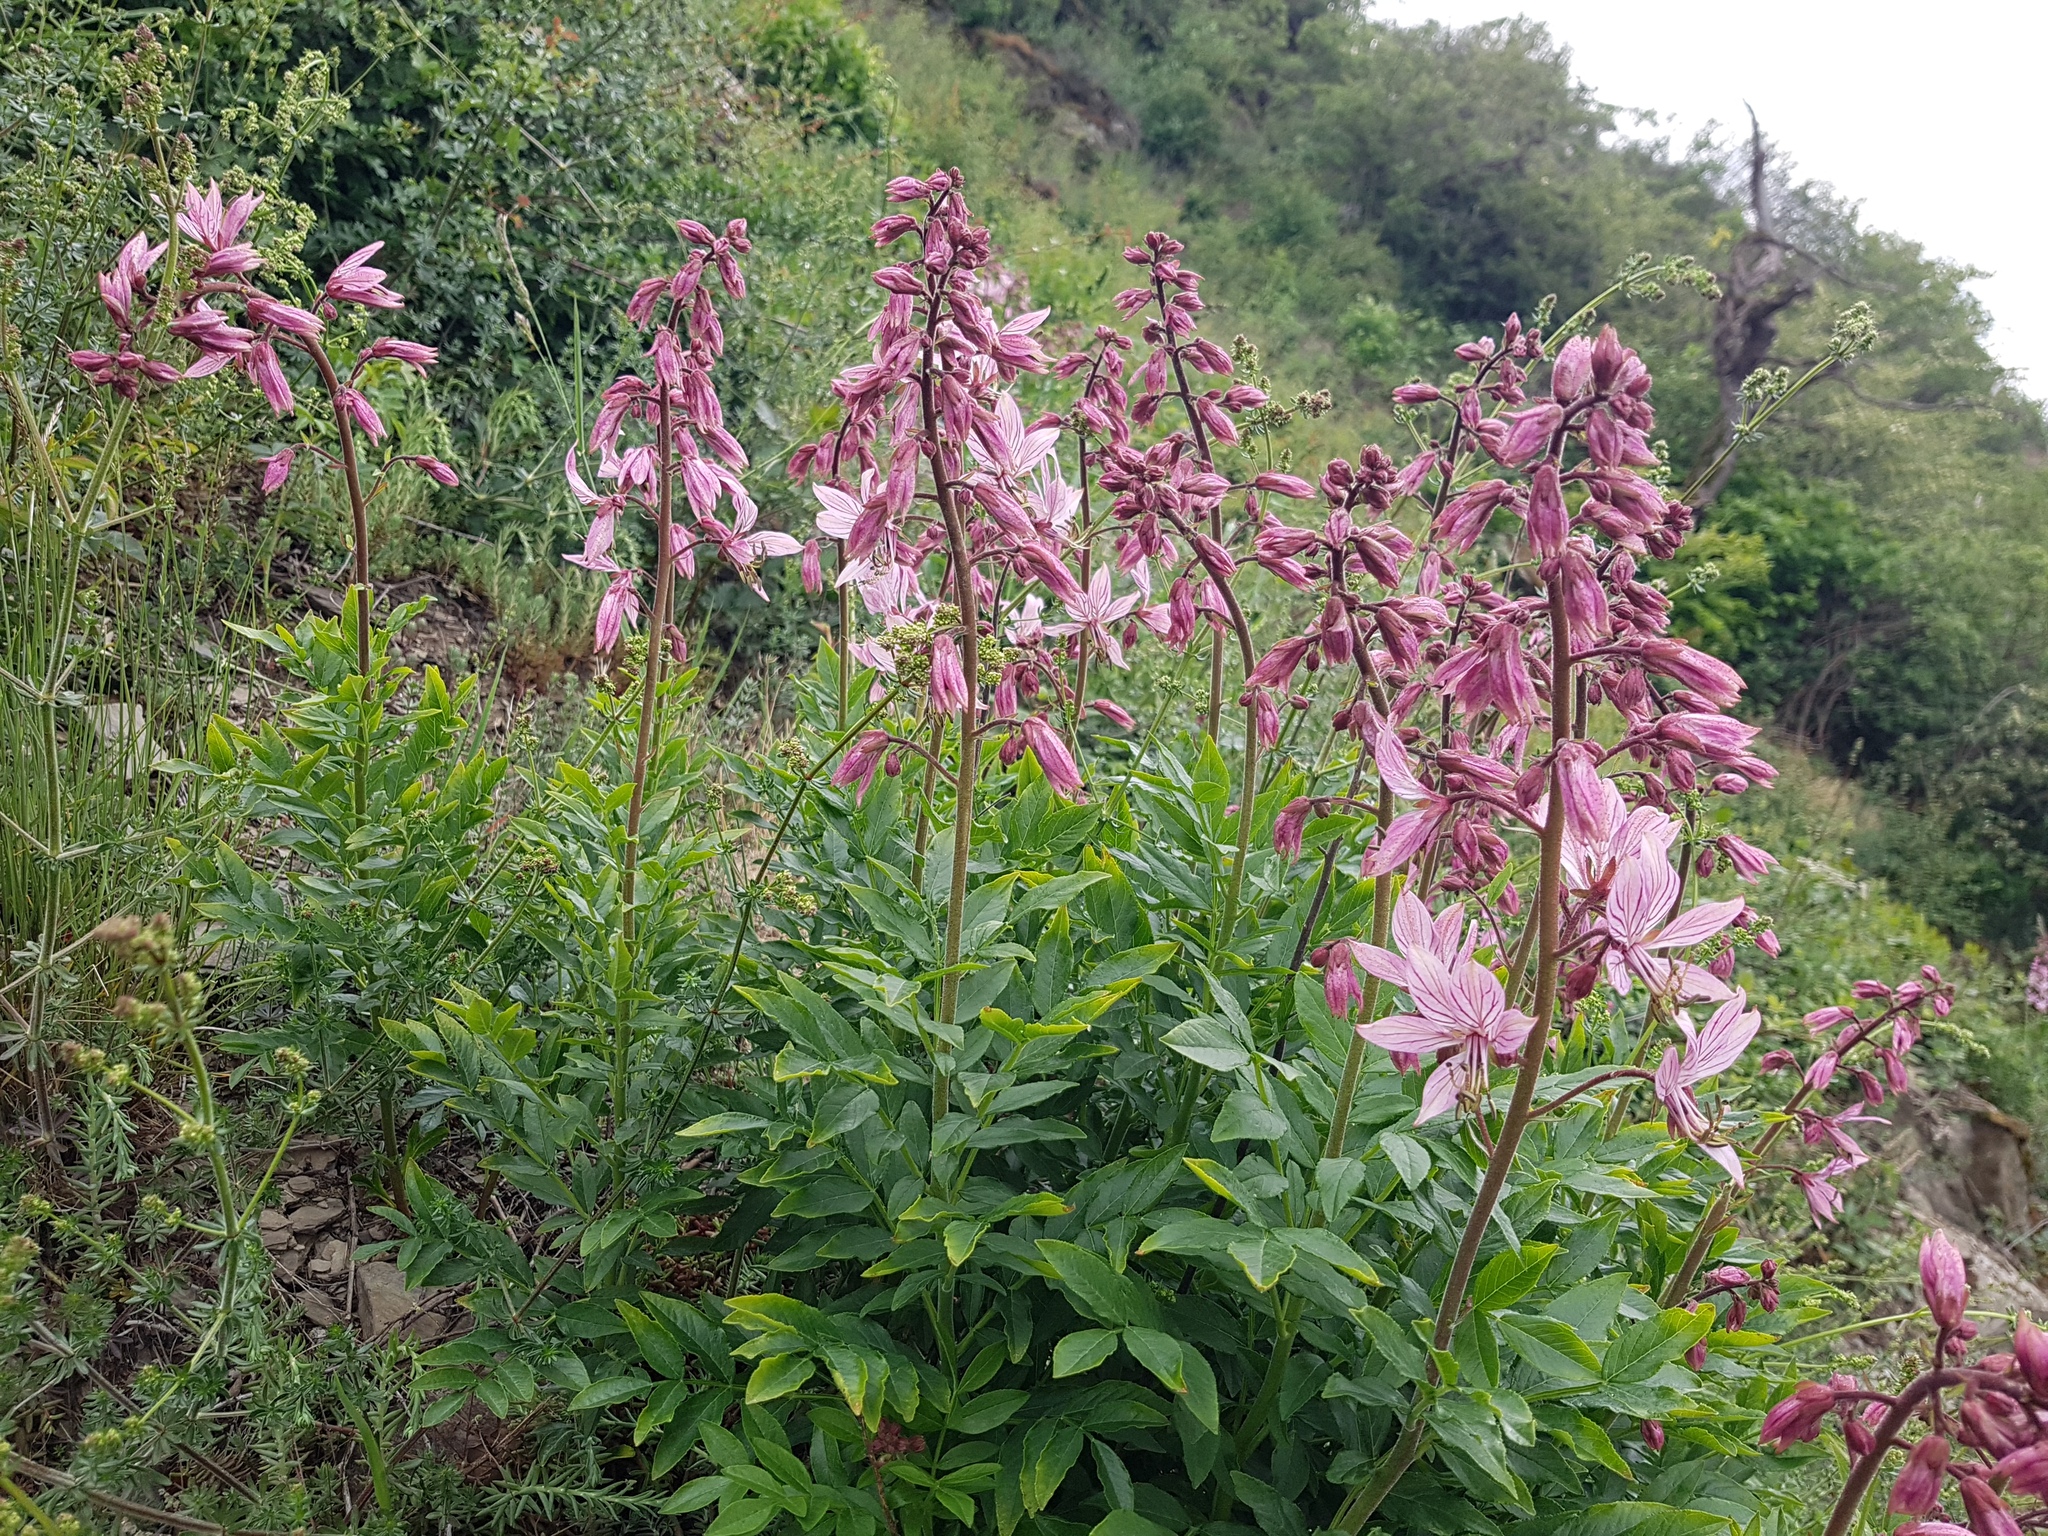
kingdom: Plantae
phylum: Tracheophyta
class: Magnoliopsida
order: Sapindales
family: Rutaceae
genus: Dictamnus
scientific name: Dictamnus albus
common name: Gasplant
